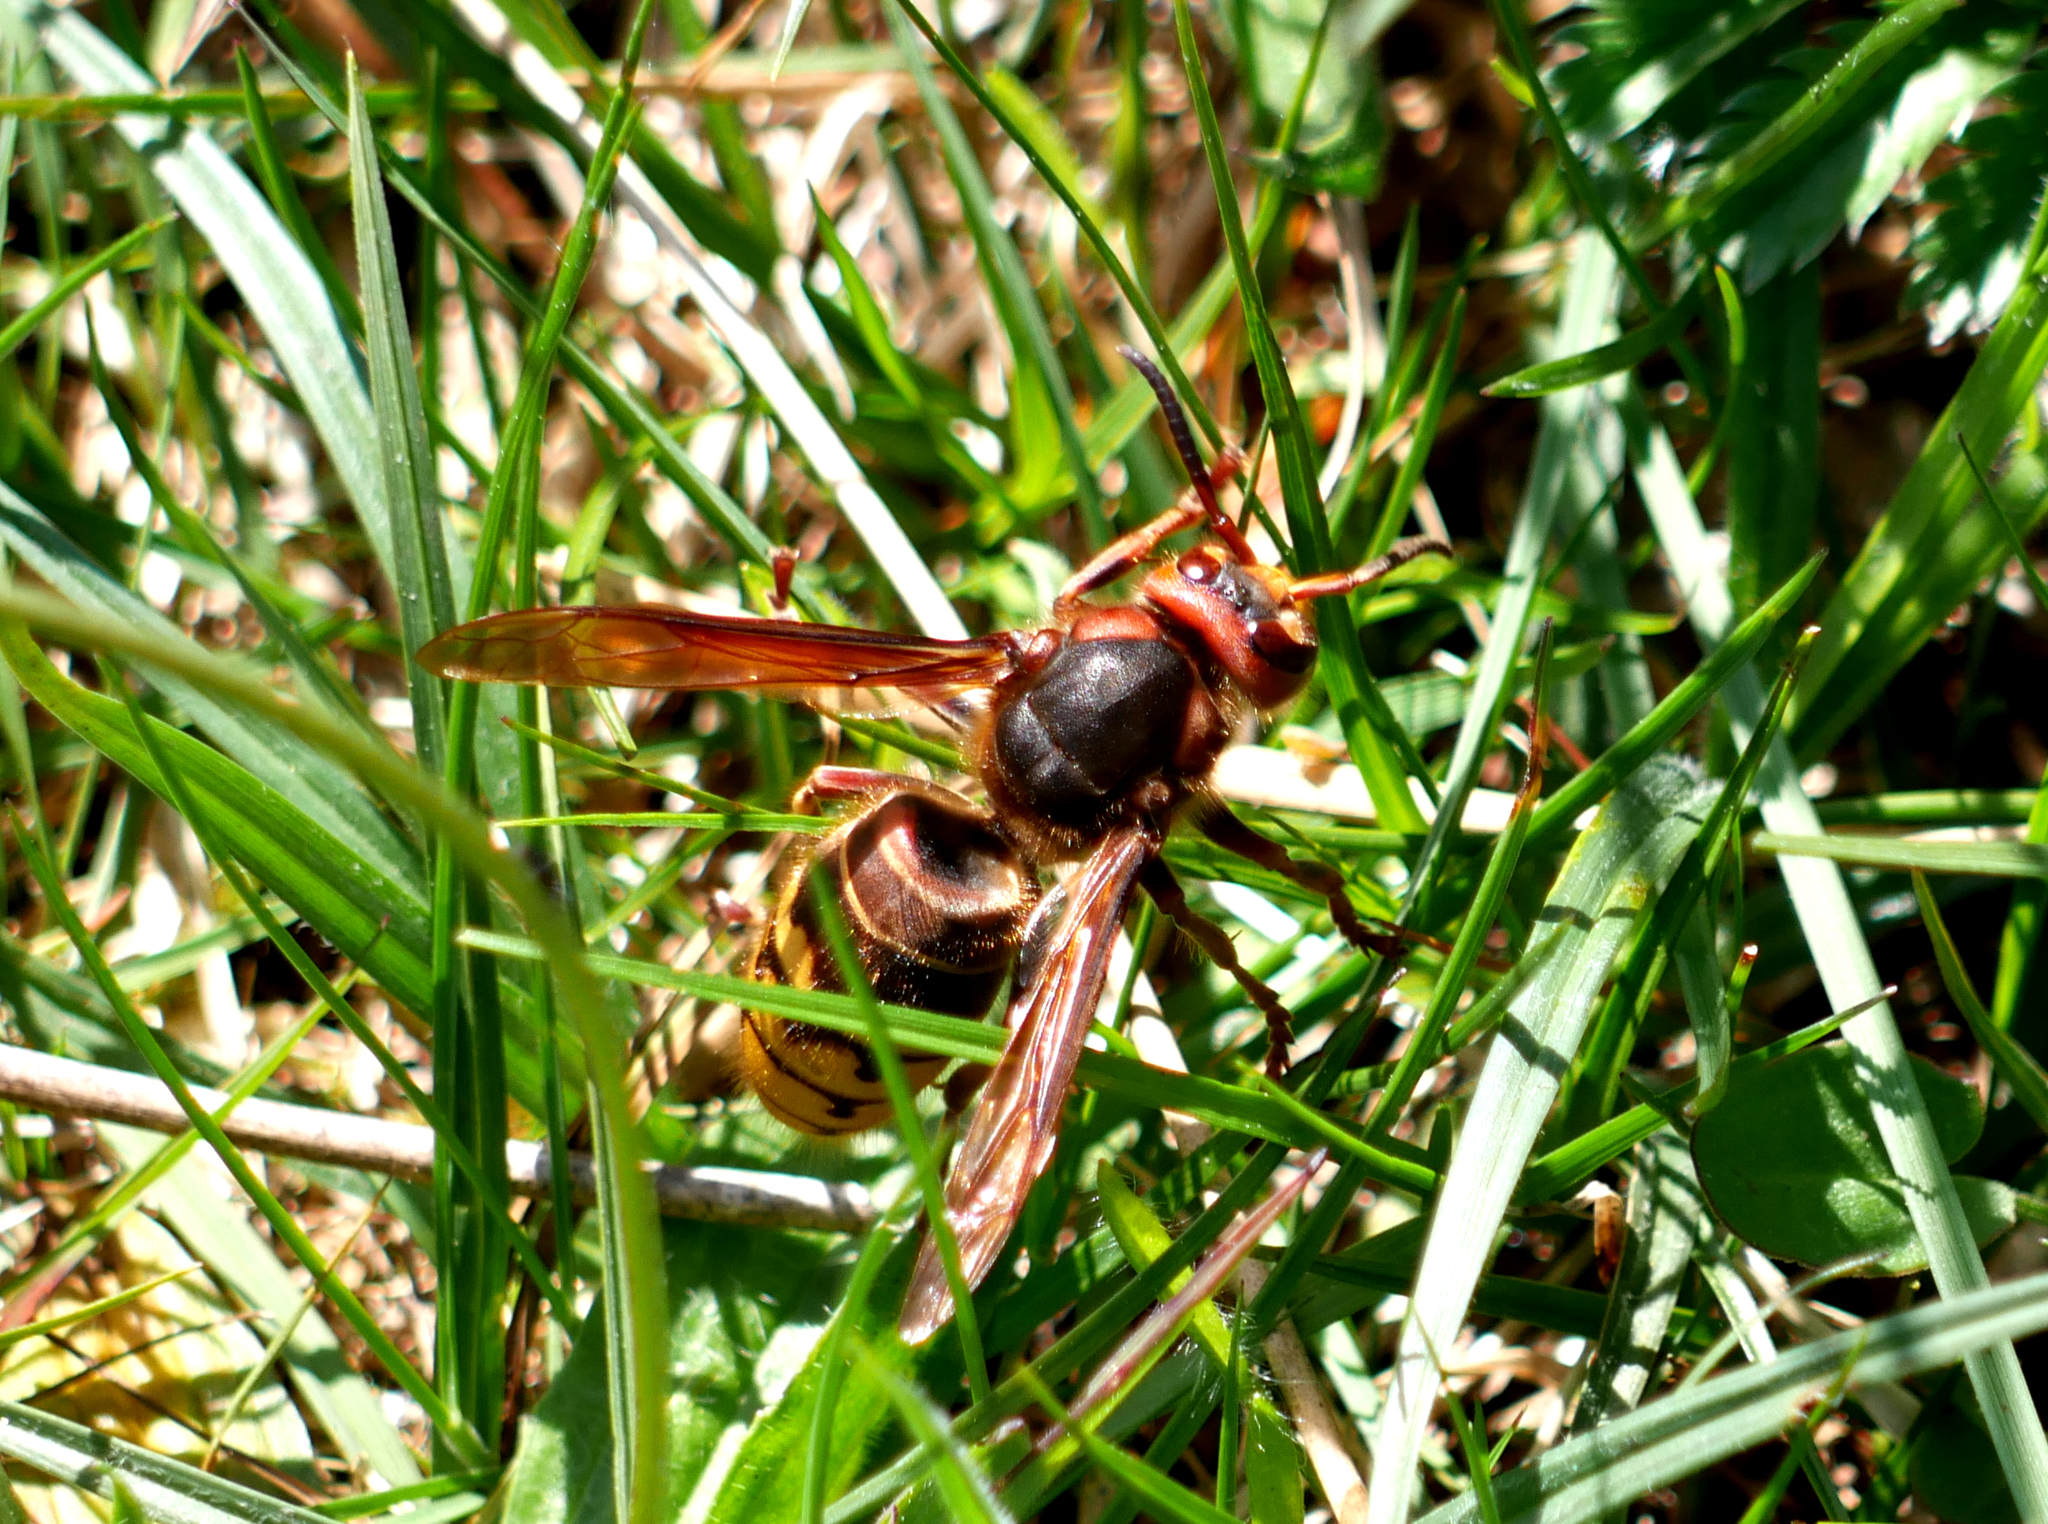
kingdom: Animalia
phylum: Arthropoda
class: Insecta
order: Hymenoptera
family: Vespidae
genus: Vespa
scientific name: Vespa crabro
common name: Hornet
